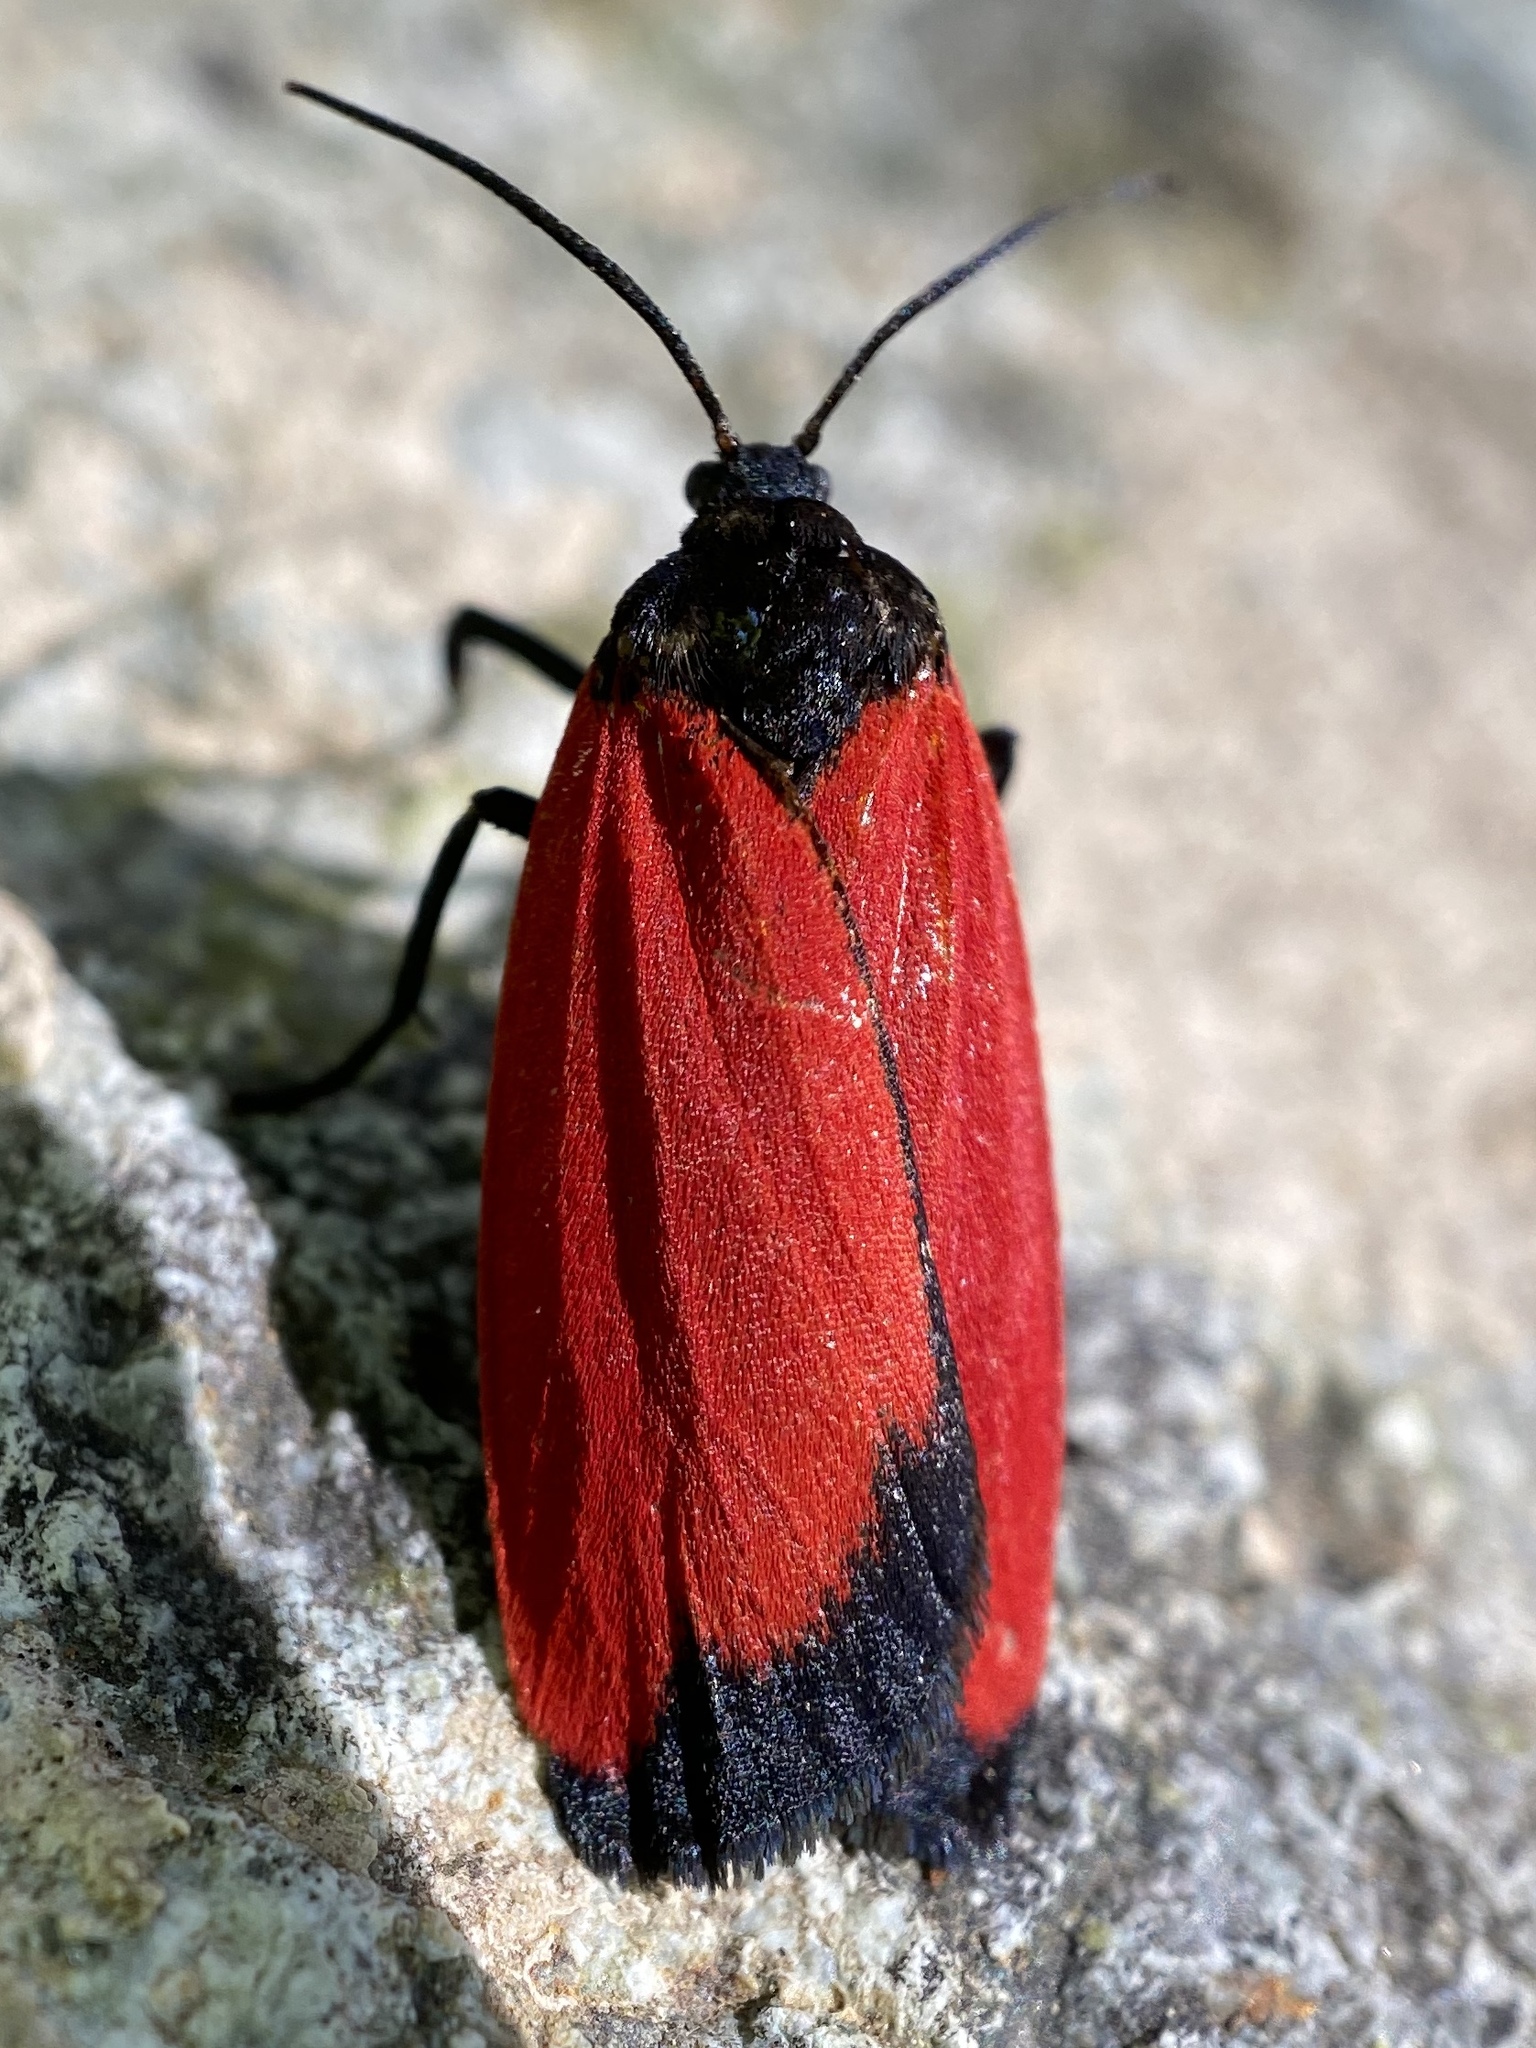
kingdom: Animalia
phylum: Arthropoda
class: Insecta
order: Lepidoptera
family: Erebidae
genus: Ptychoglene
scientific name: Ptychoglene phrada
